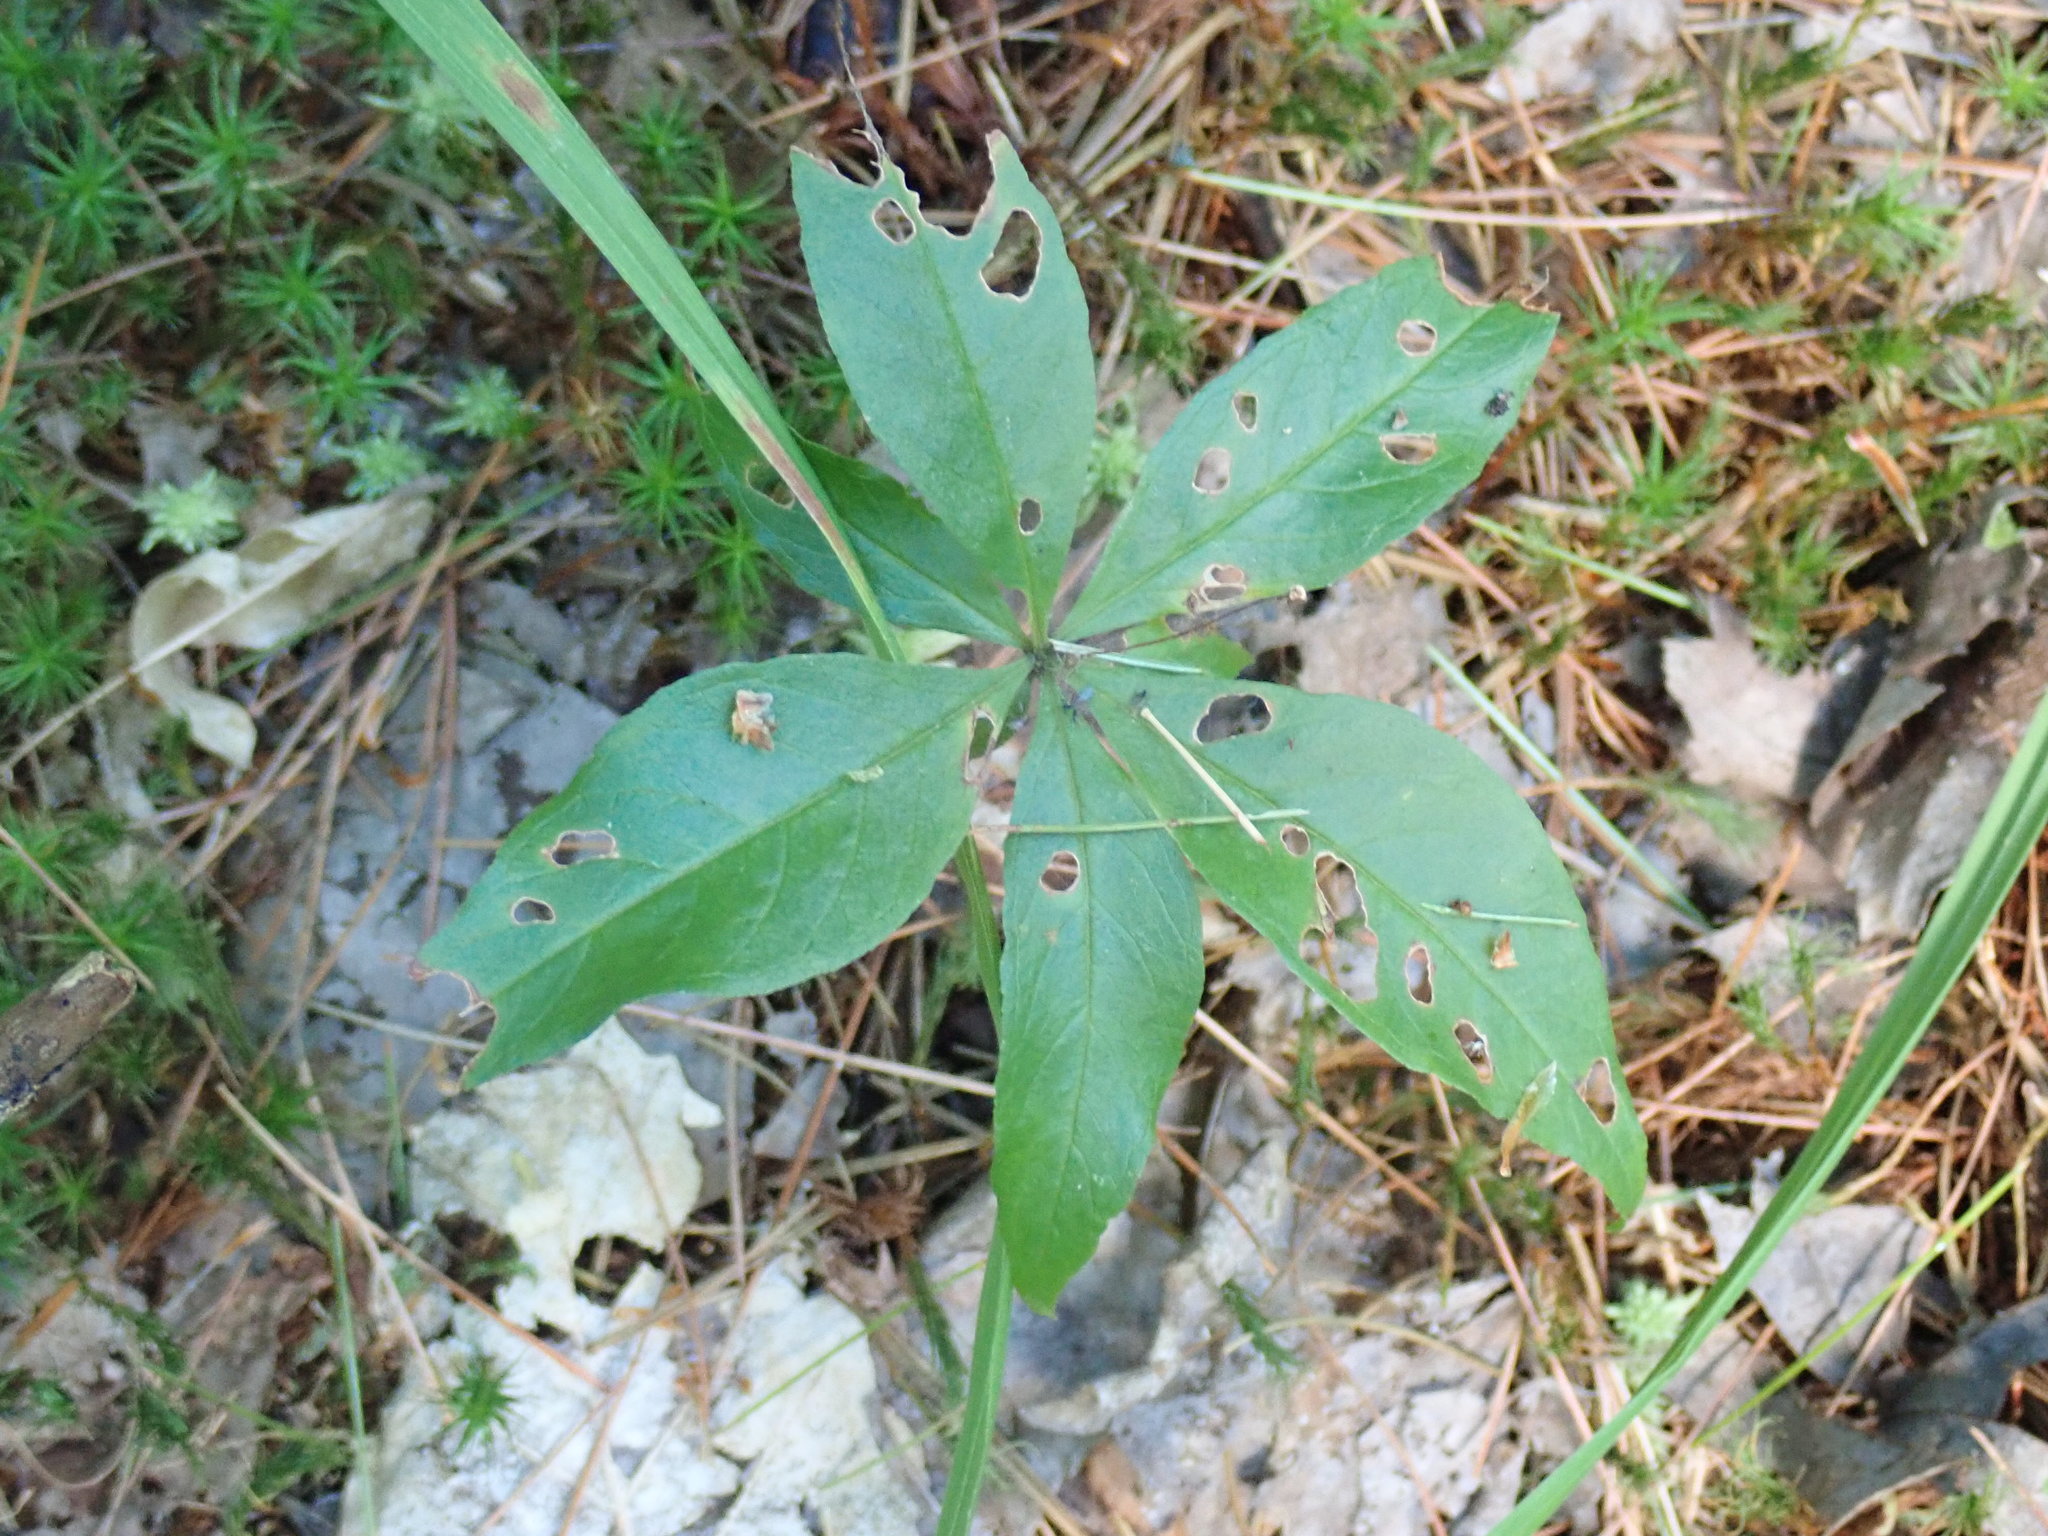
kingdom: Plantae
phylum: Tracheophyta
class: Magnoliopsida
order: Ericales
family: Primulaceae
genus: Lysimachia
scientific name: Lysimachia borealis
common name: American starflower
